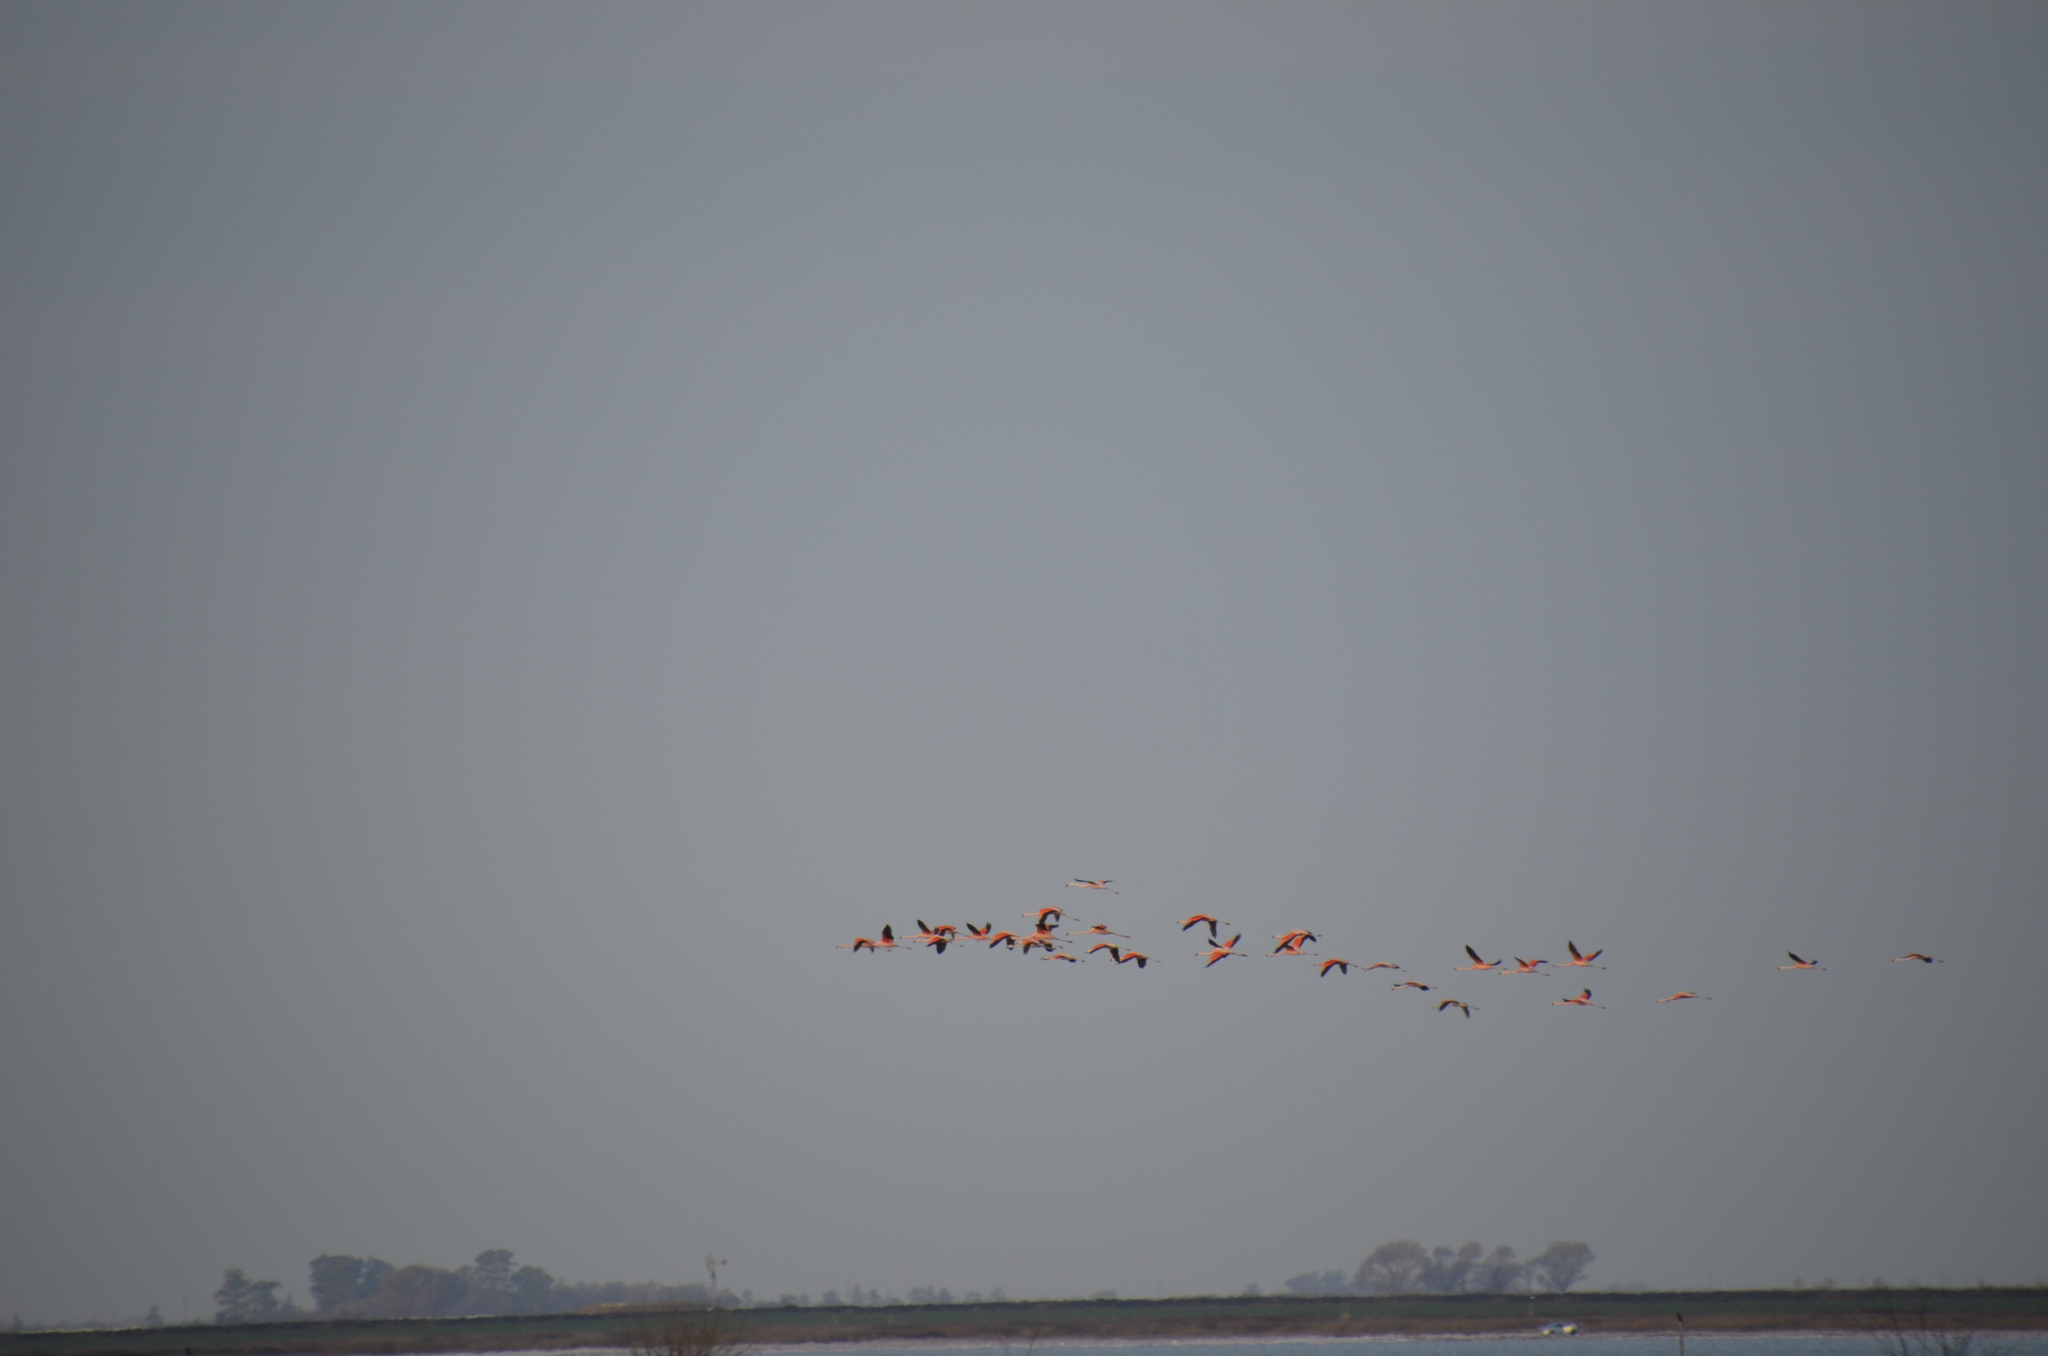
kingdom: Animalia
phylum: Chordata
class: Aves
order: Phoenicopteriformes
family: Phoenicopteridae
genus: Phoenicopterus
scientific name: Phoenicopterus chilensis
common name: Chilean flamingo
